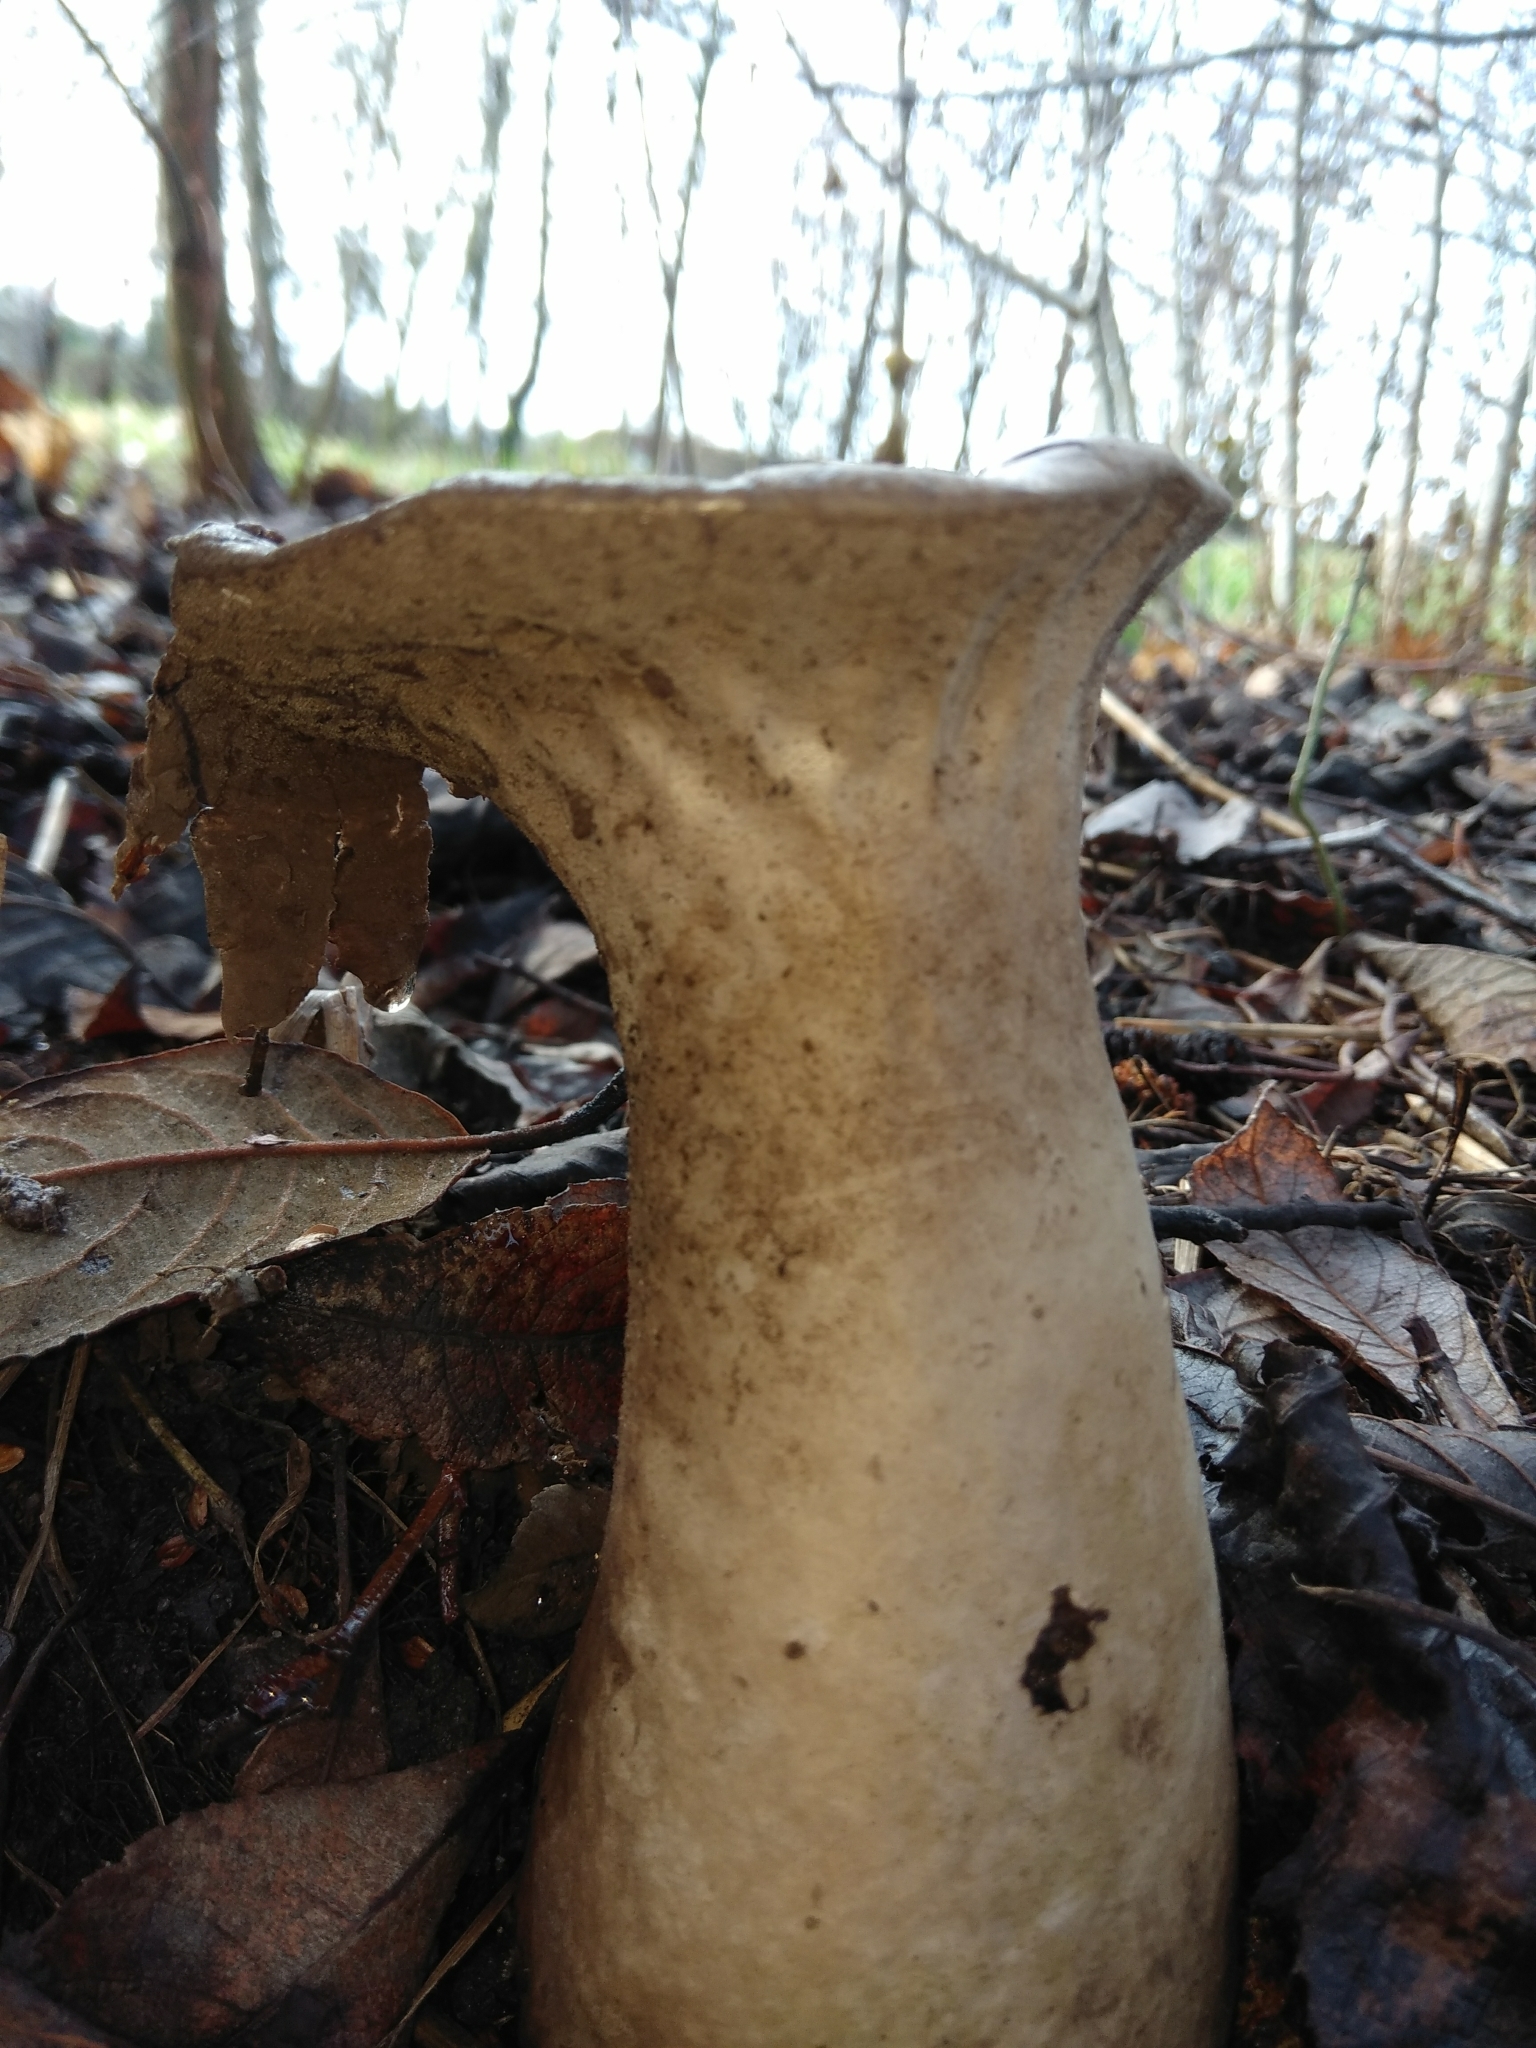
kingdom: Fungi
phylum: Basidiomycota
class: Agaricomycetes
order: Agaricales
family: Lycoperdaceae
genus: Lycoperdon
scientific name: Lycoperdon excipuliforme
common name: Pestle puffball
